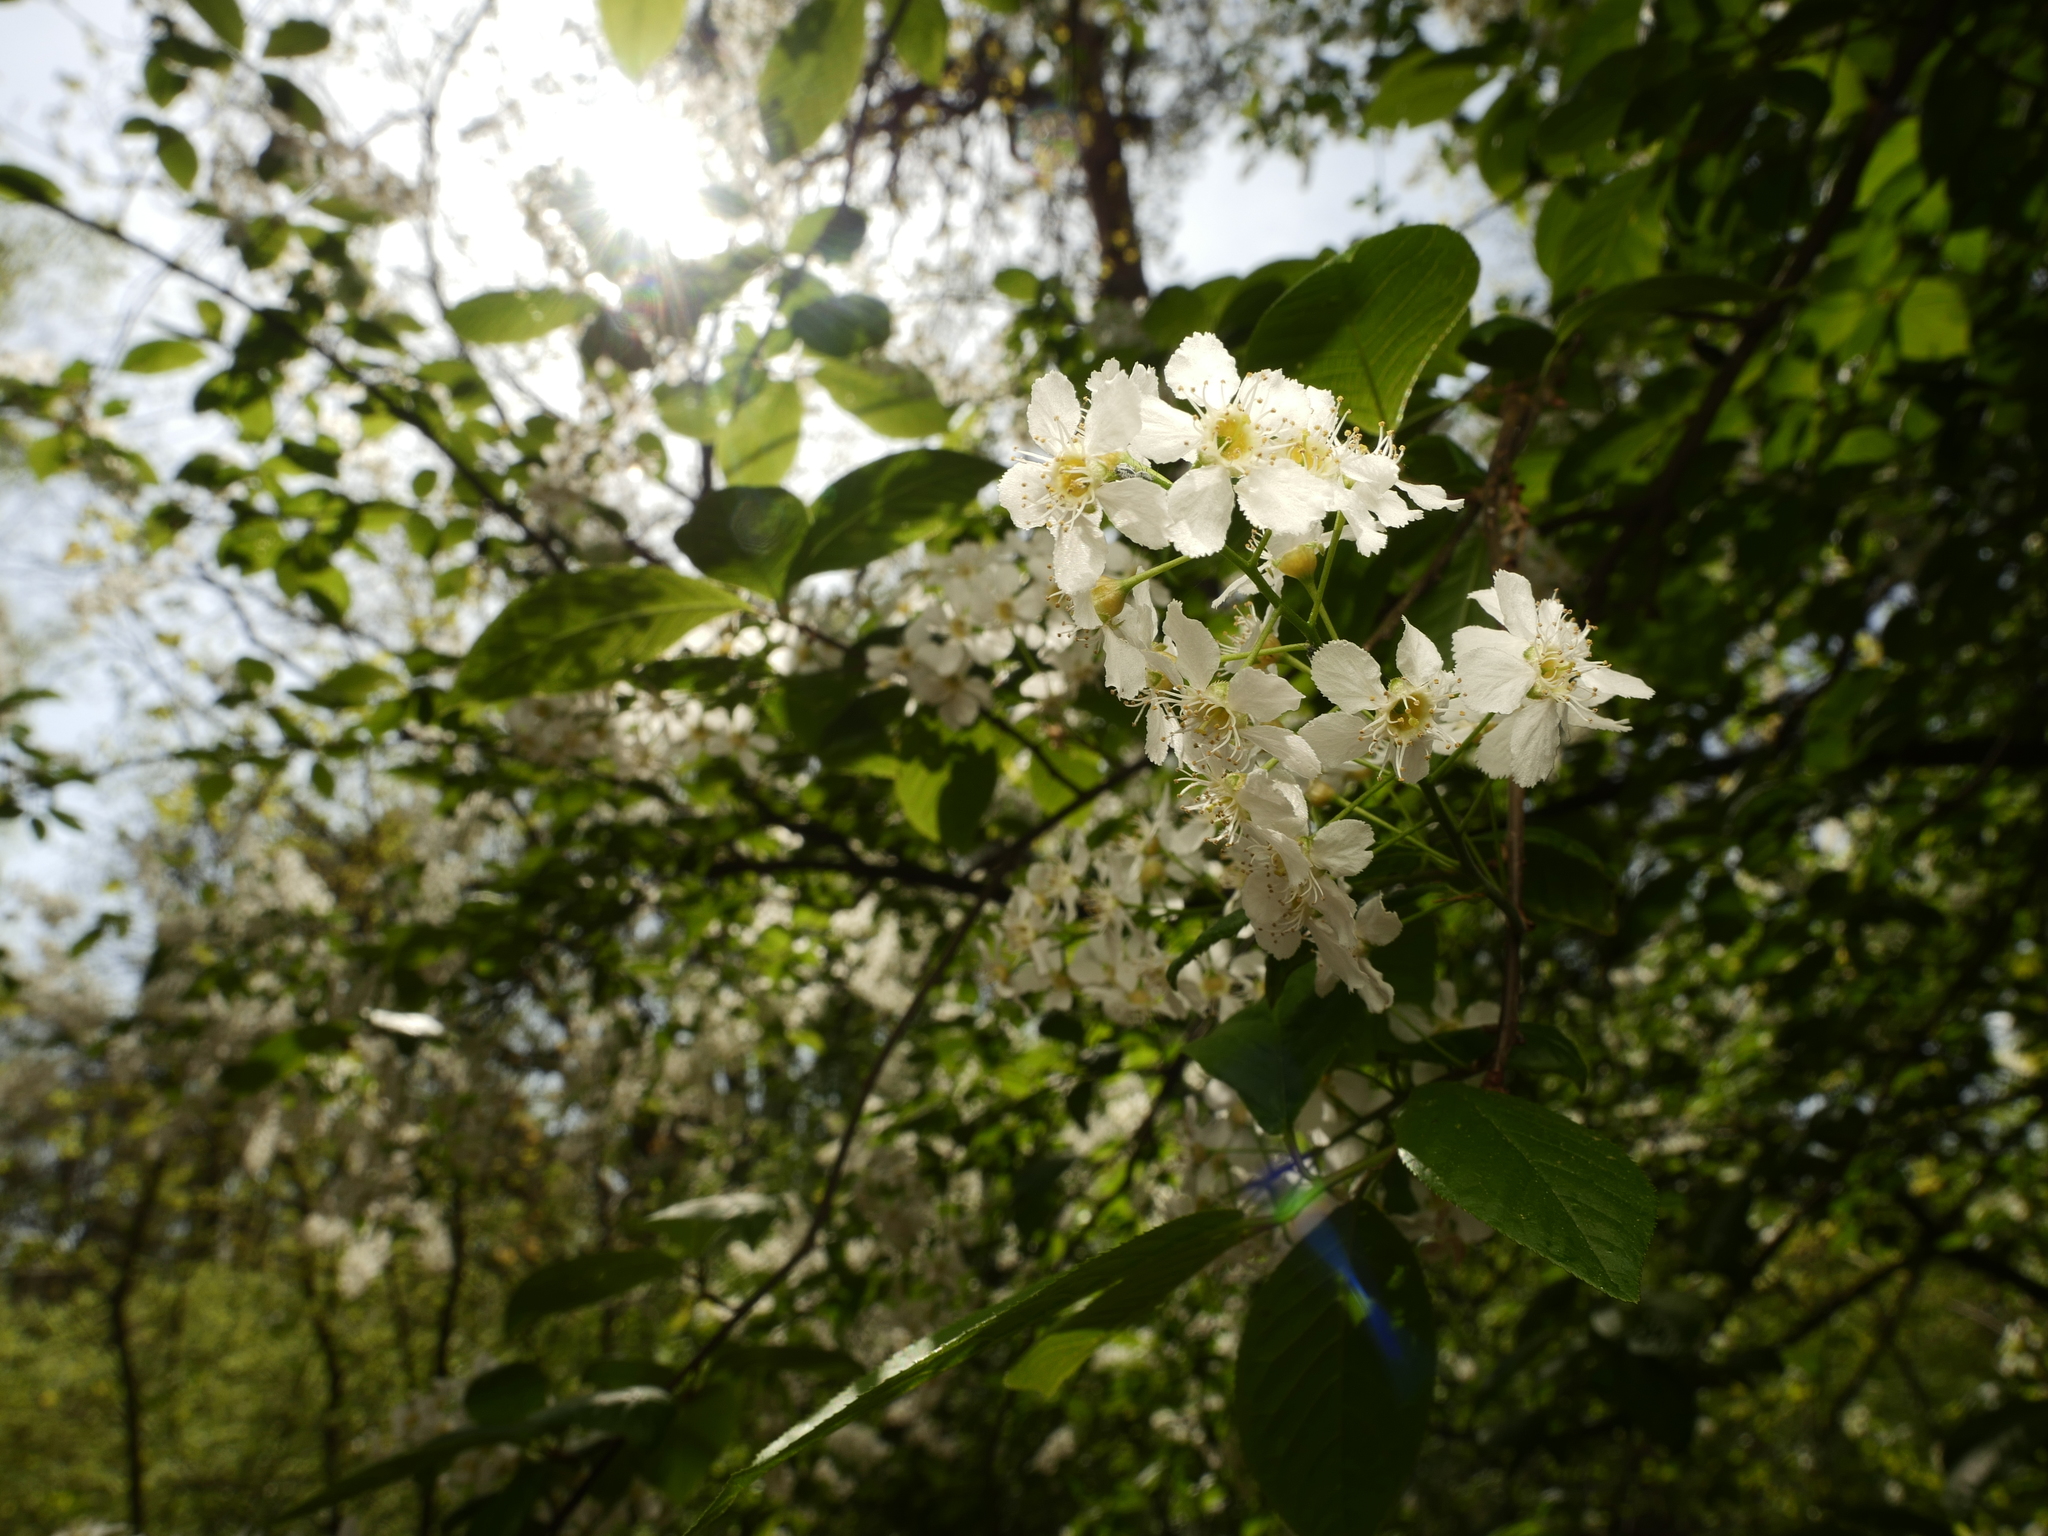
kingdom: Plantae
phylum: Tracheophyta
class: Magnoliopsida
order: Rosales
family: Rosaceae
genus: Prunus
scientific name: Prunus padus
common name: Bird cherry
